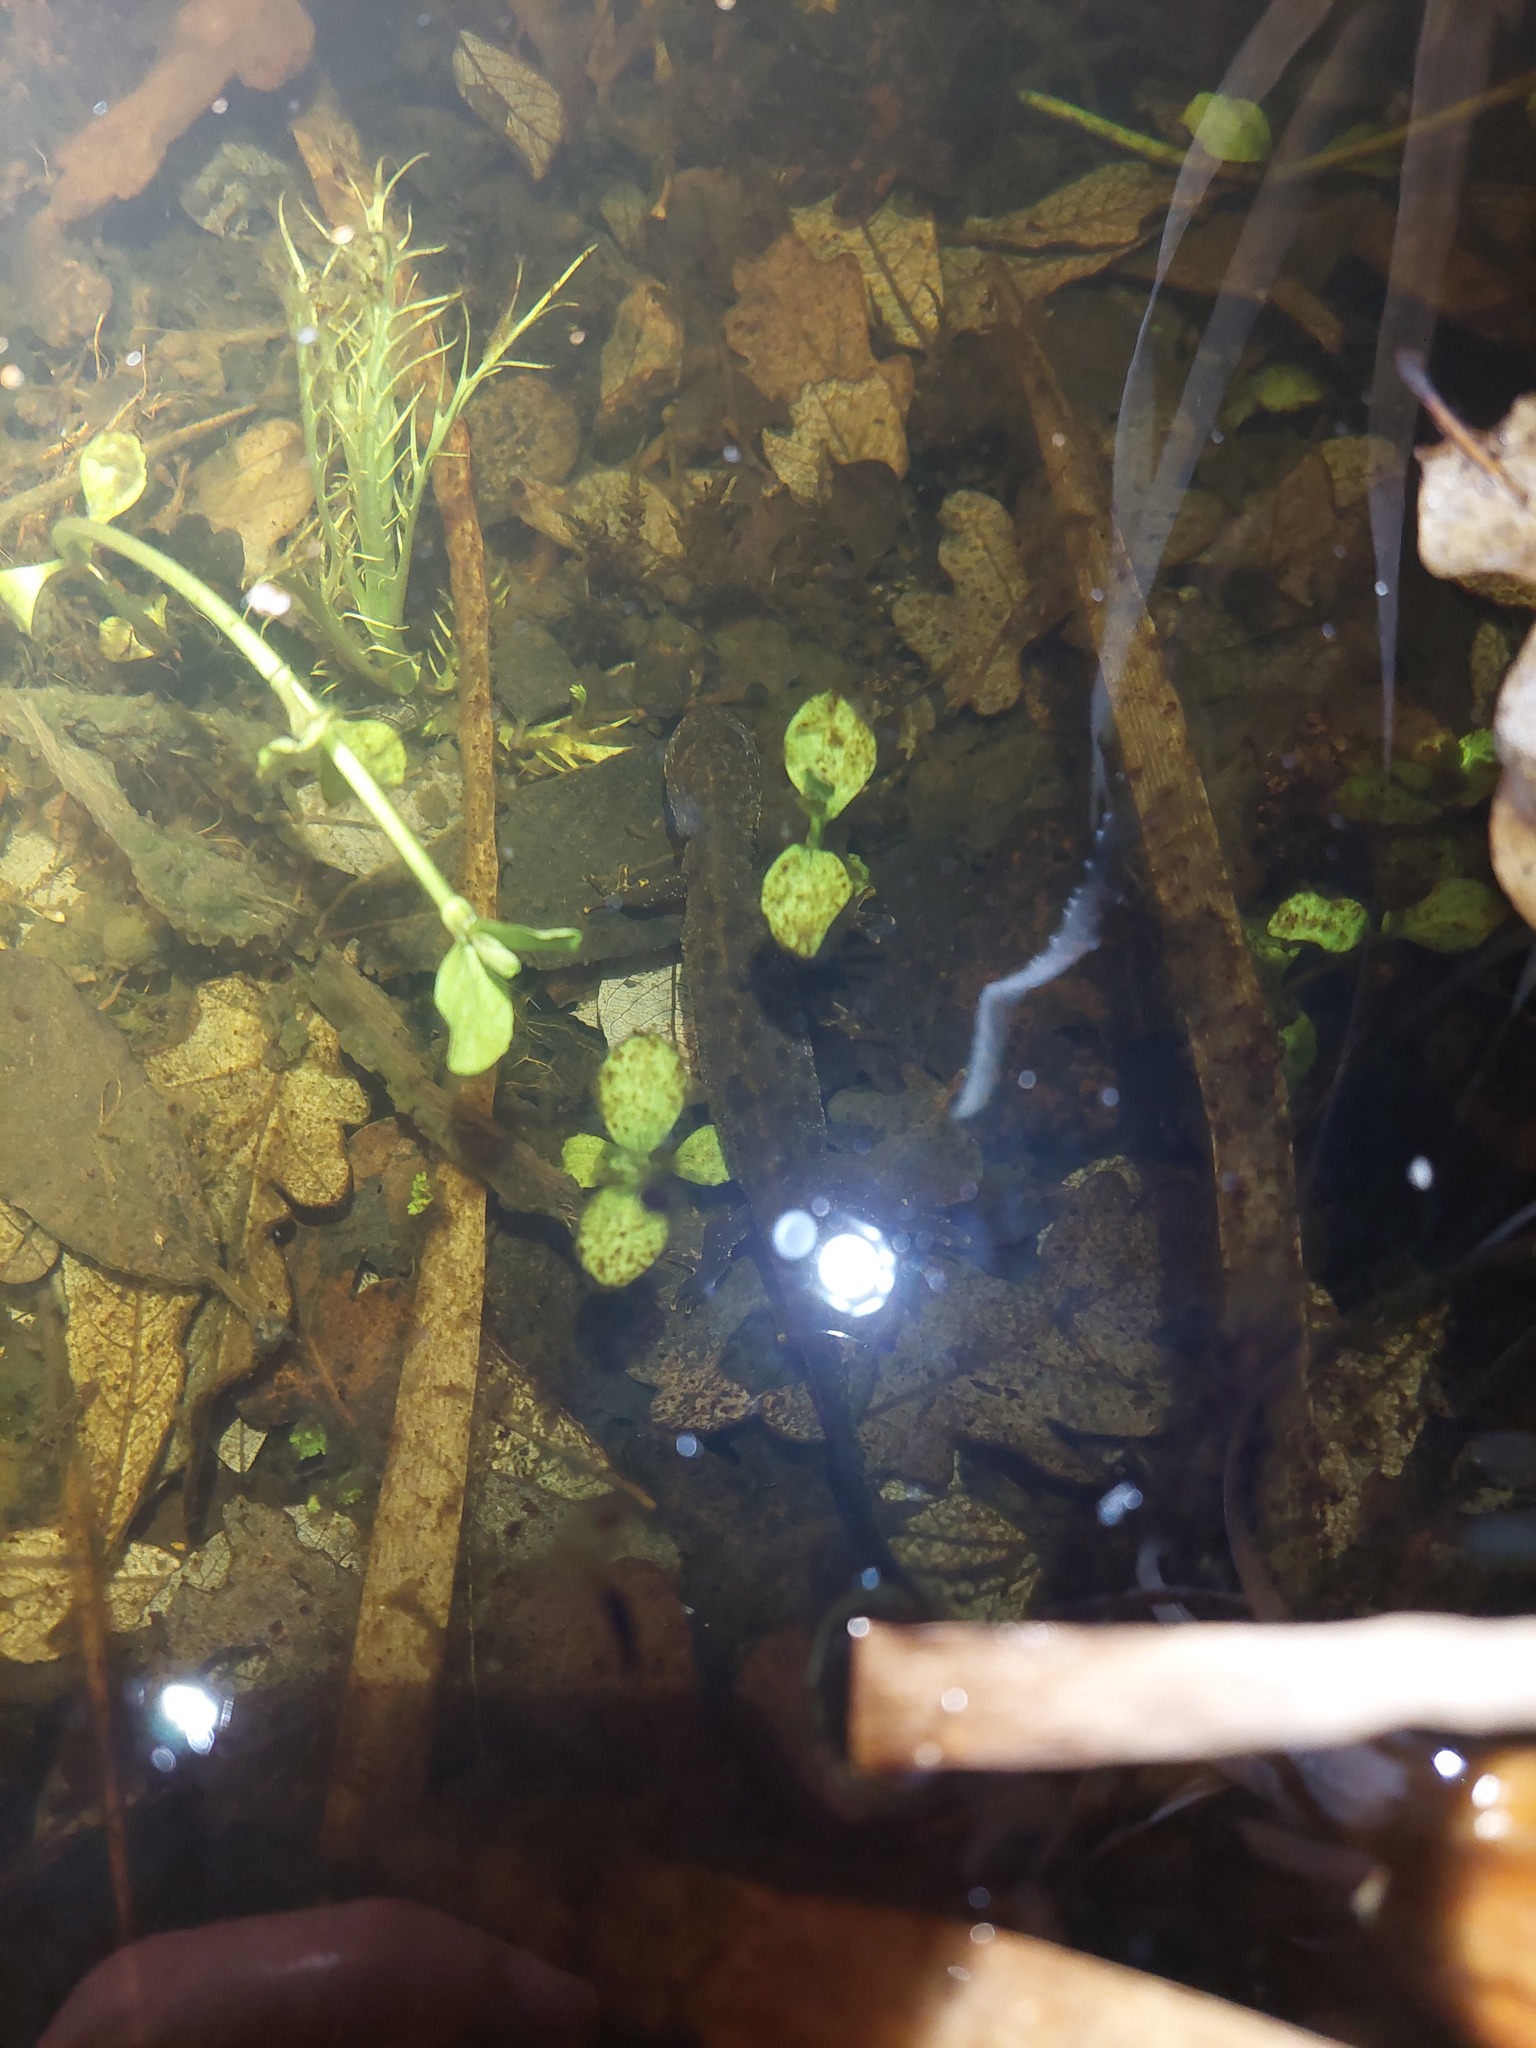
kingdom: Animalia
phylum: Chordata
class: Amphibia
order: Caudata
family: Salamandridae
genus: Triturus
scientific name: Triturus cristatus
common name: Crested newt
